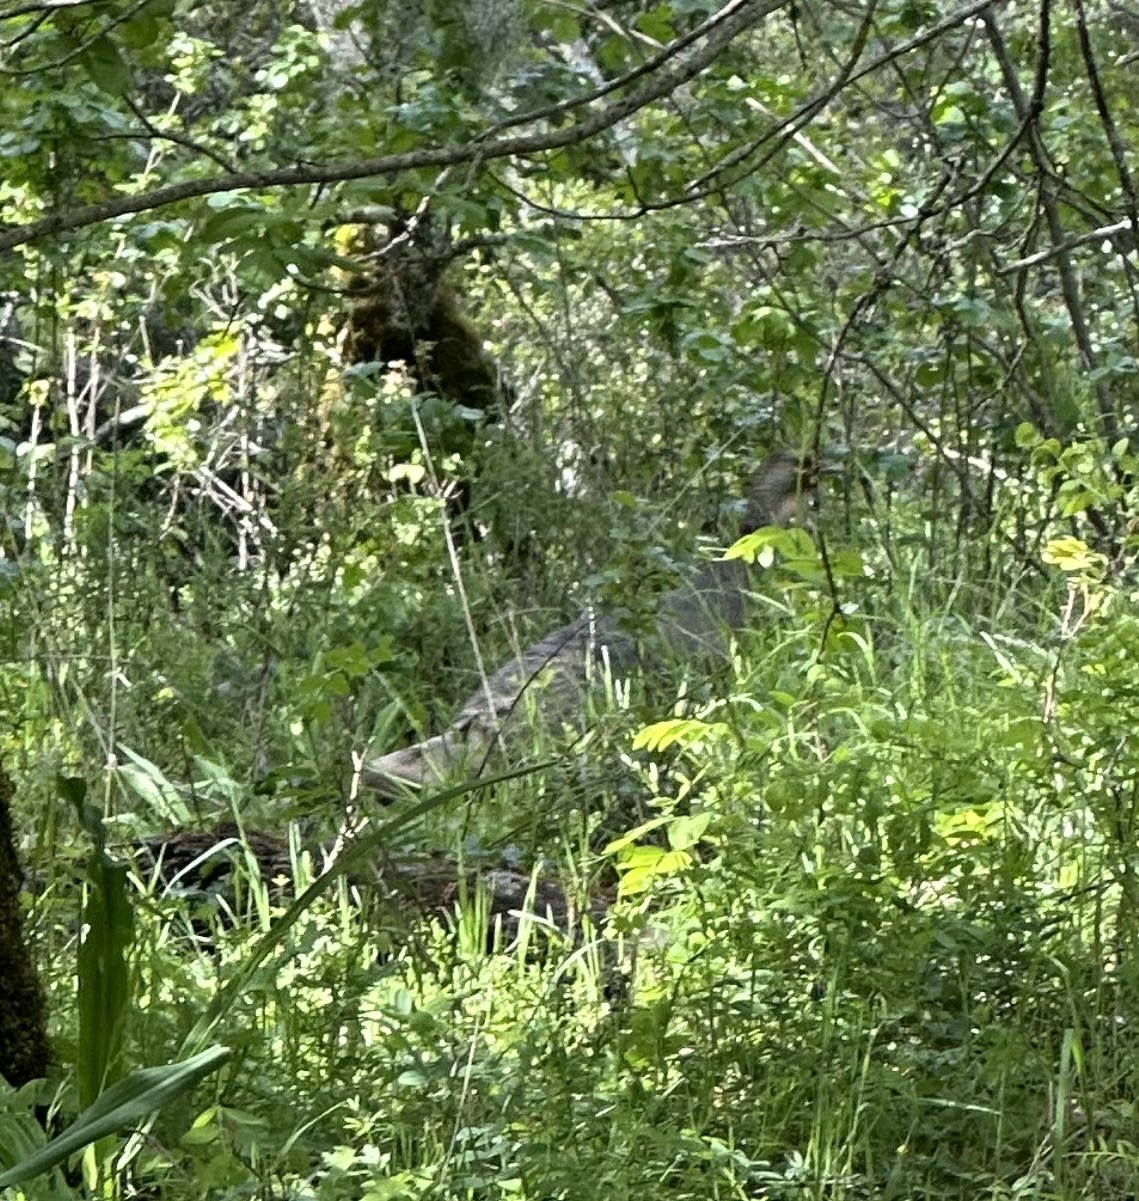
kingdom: Animalia
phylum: Chordata
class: Aves
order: Galliformes
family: Phasianidae
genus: Meleagris
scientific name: Meleagris gallopavo
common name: Wild turkey
